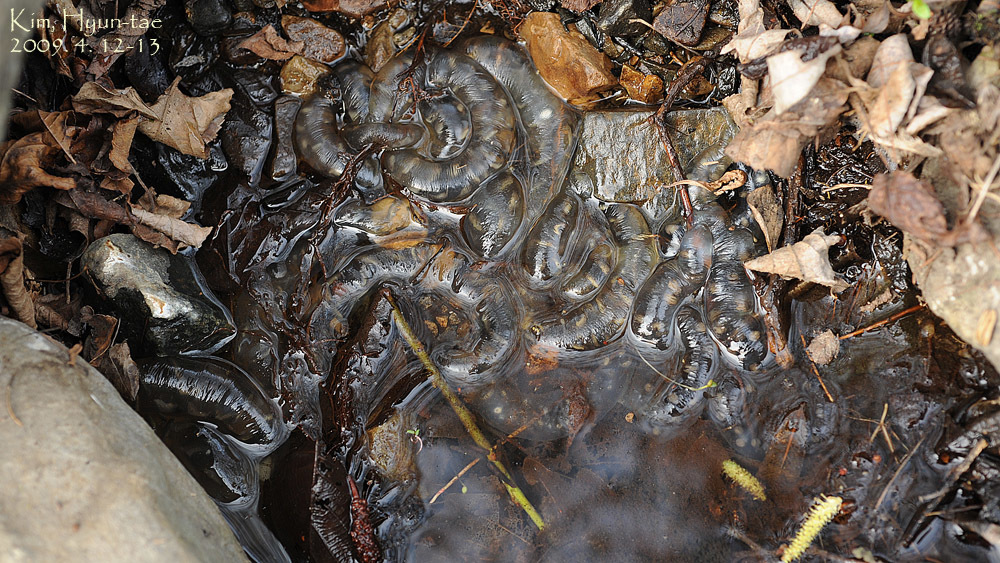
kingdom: Animalia
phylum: Chordata
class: Amphibia
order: Caudata
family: Hynobiidae
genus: Hynobius
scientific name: Hynobius leechii
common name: Gensan salamander
